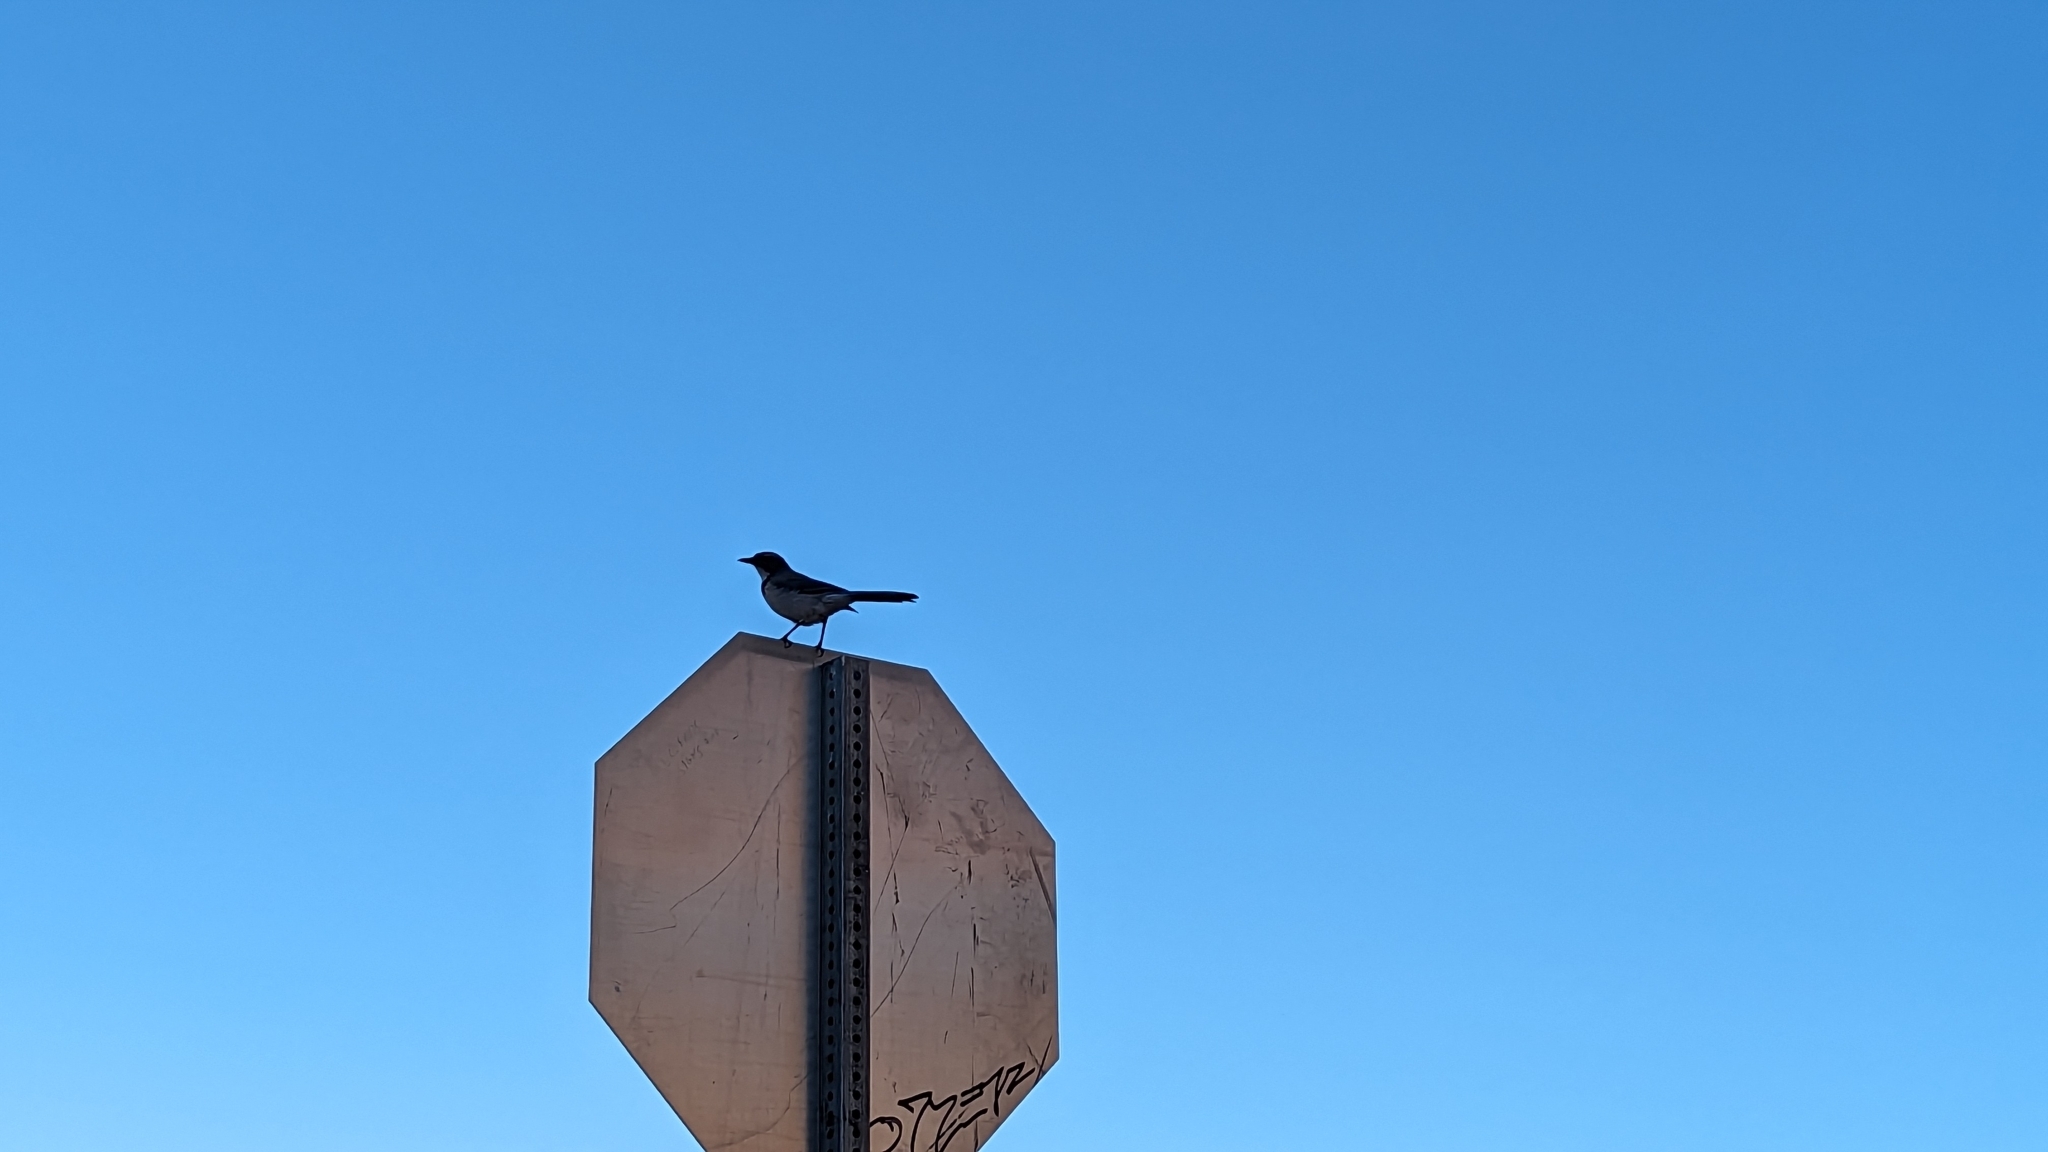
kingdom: Animalia
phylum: Chordata
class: Aves
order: Passeriformes
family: Corvidae
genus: Aphelocoma
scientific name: Aphelocoma californica
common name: California scrub-jay
